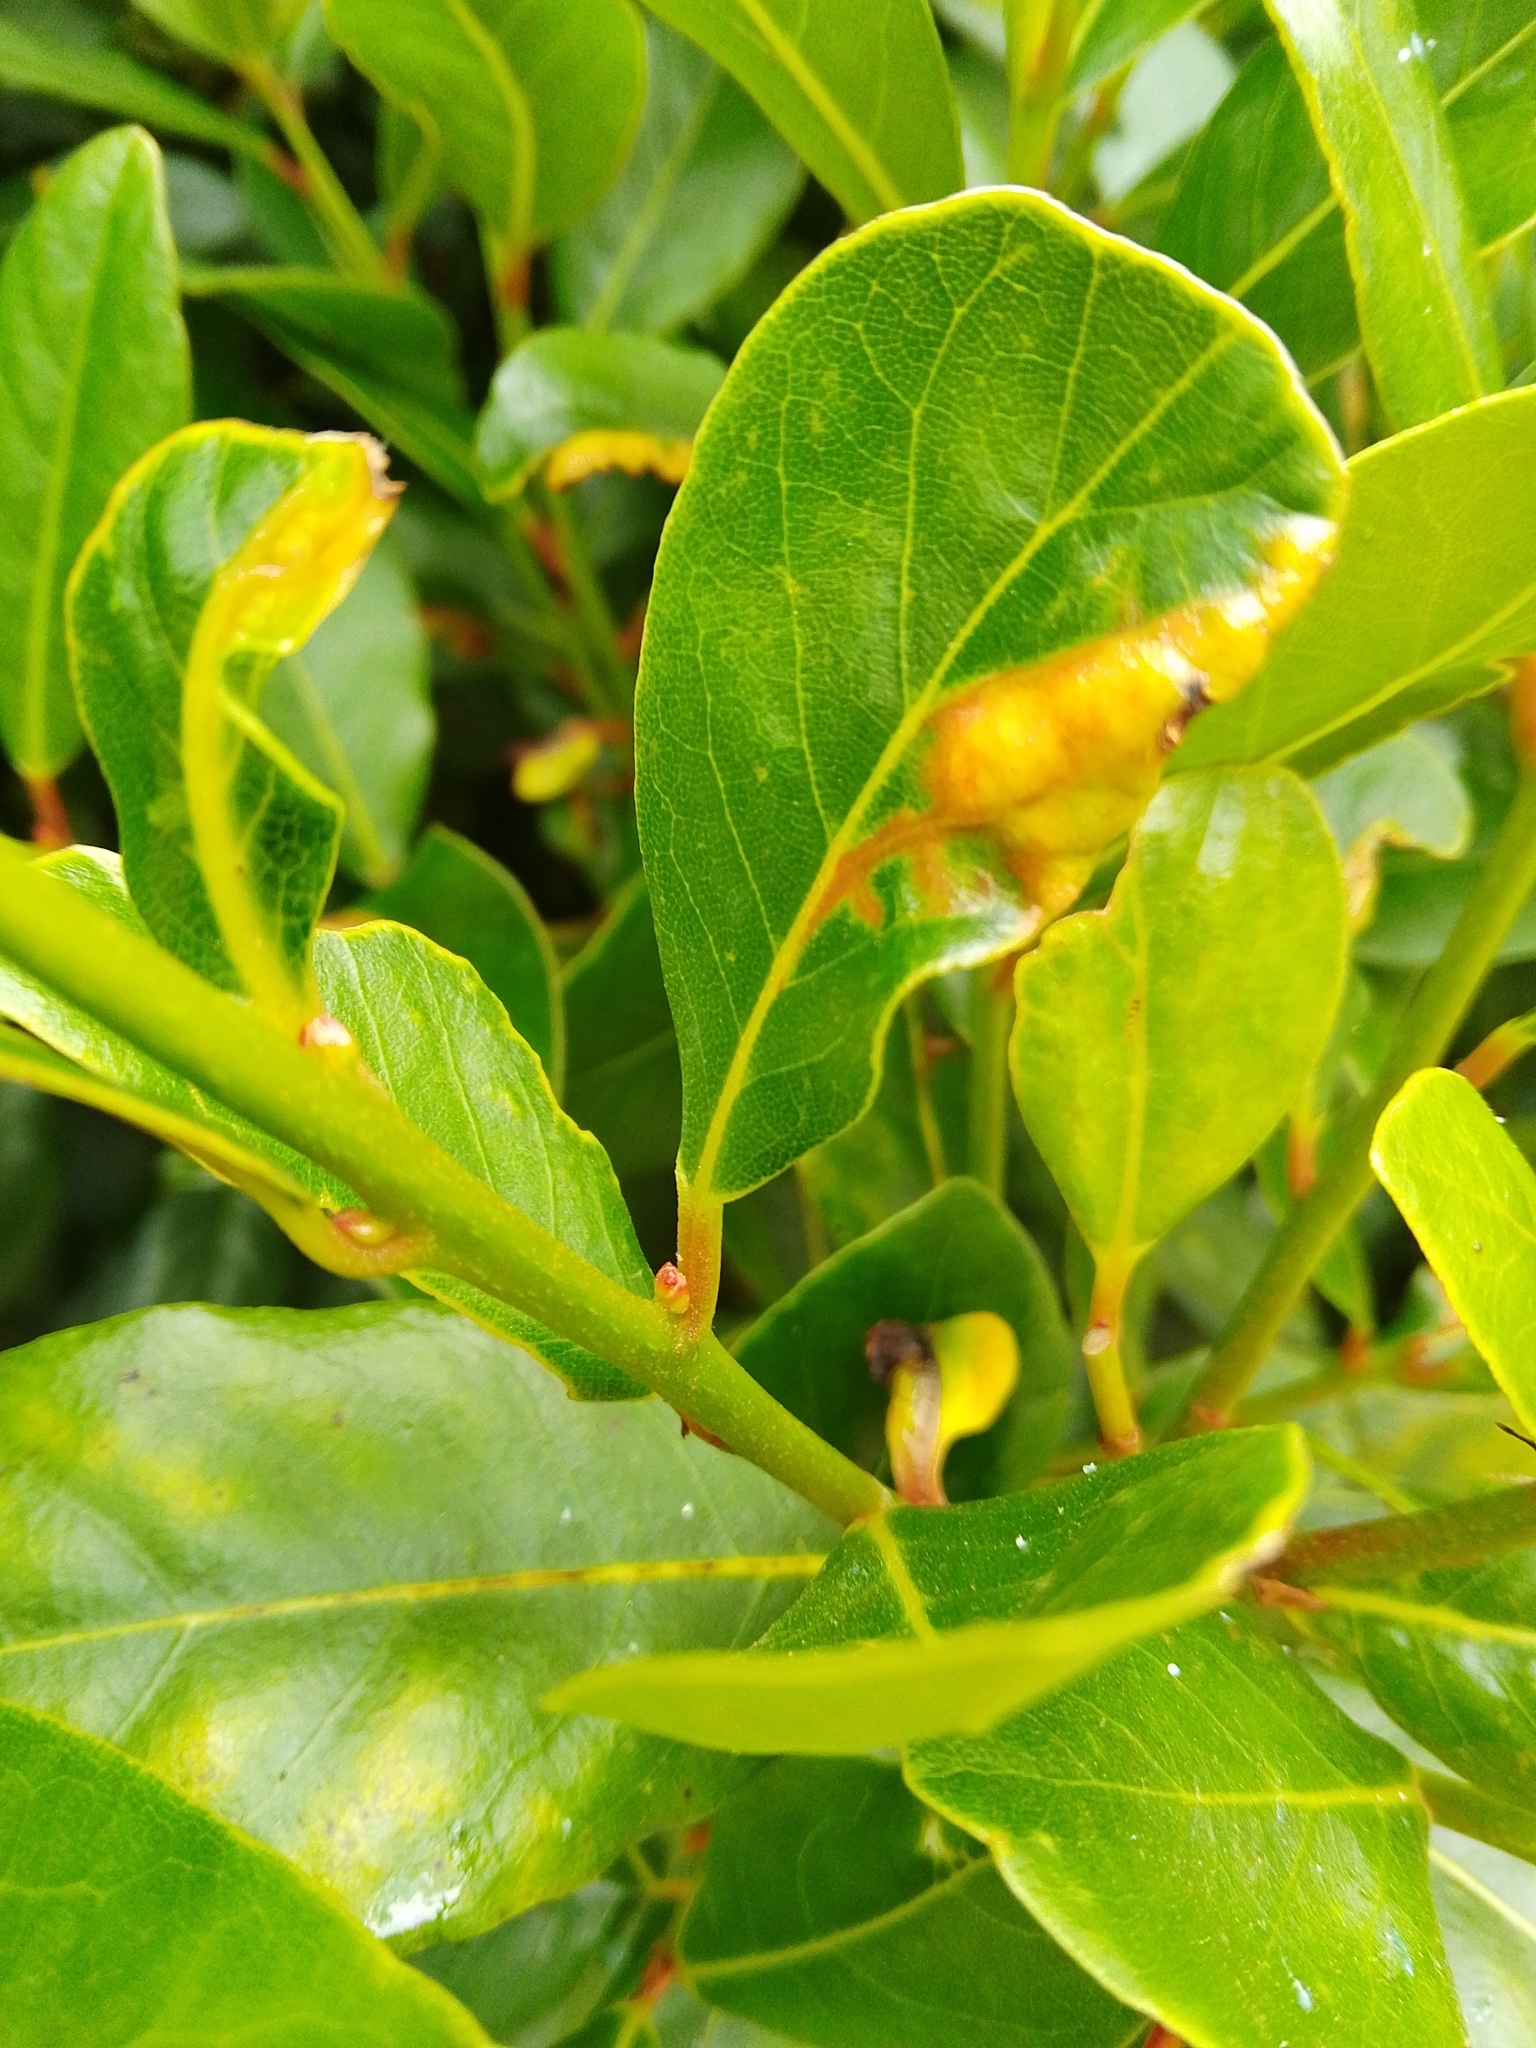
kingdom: Animalia
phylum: Arthropoda
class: Insecta
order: Hemiptera
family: Triozidae
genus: Lauritrioza
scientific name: Lauritrioza alacris
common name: Laurel psyllid
